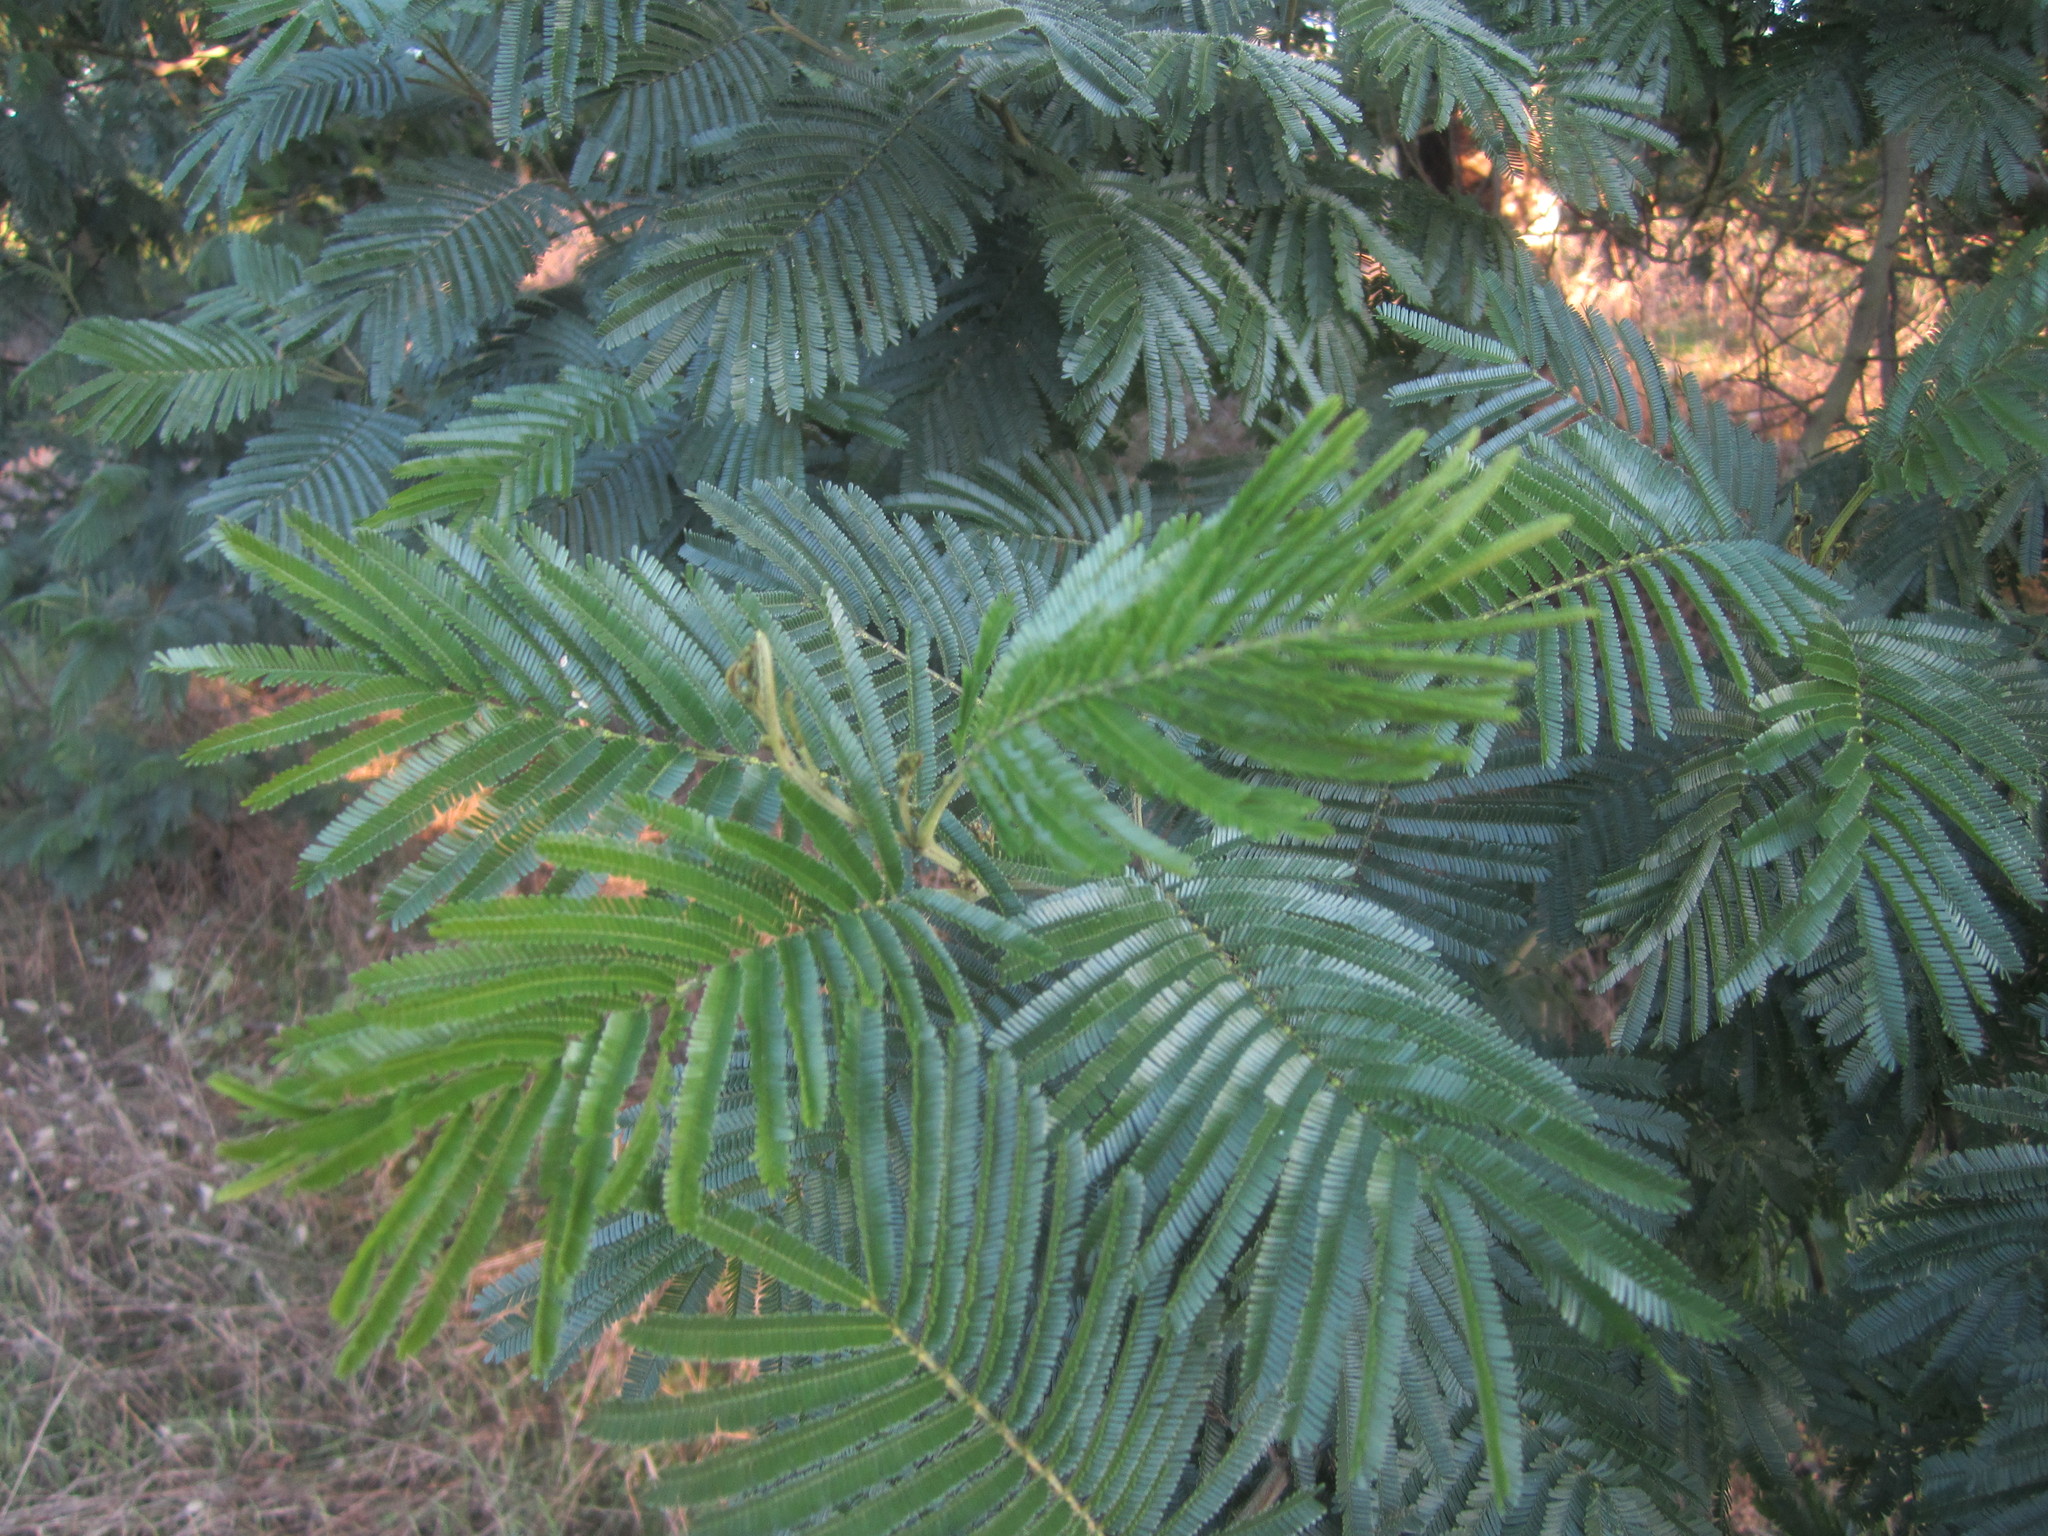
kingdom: Plantae
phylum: Tracheophyta
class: Magnoliopsida
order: Fabales
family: Fabaceae
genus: Acacia
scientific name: Acacia mearnsii
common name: Black wattle
